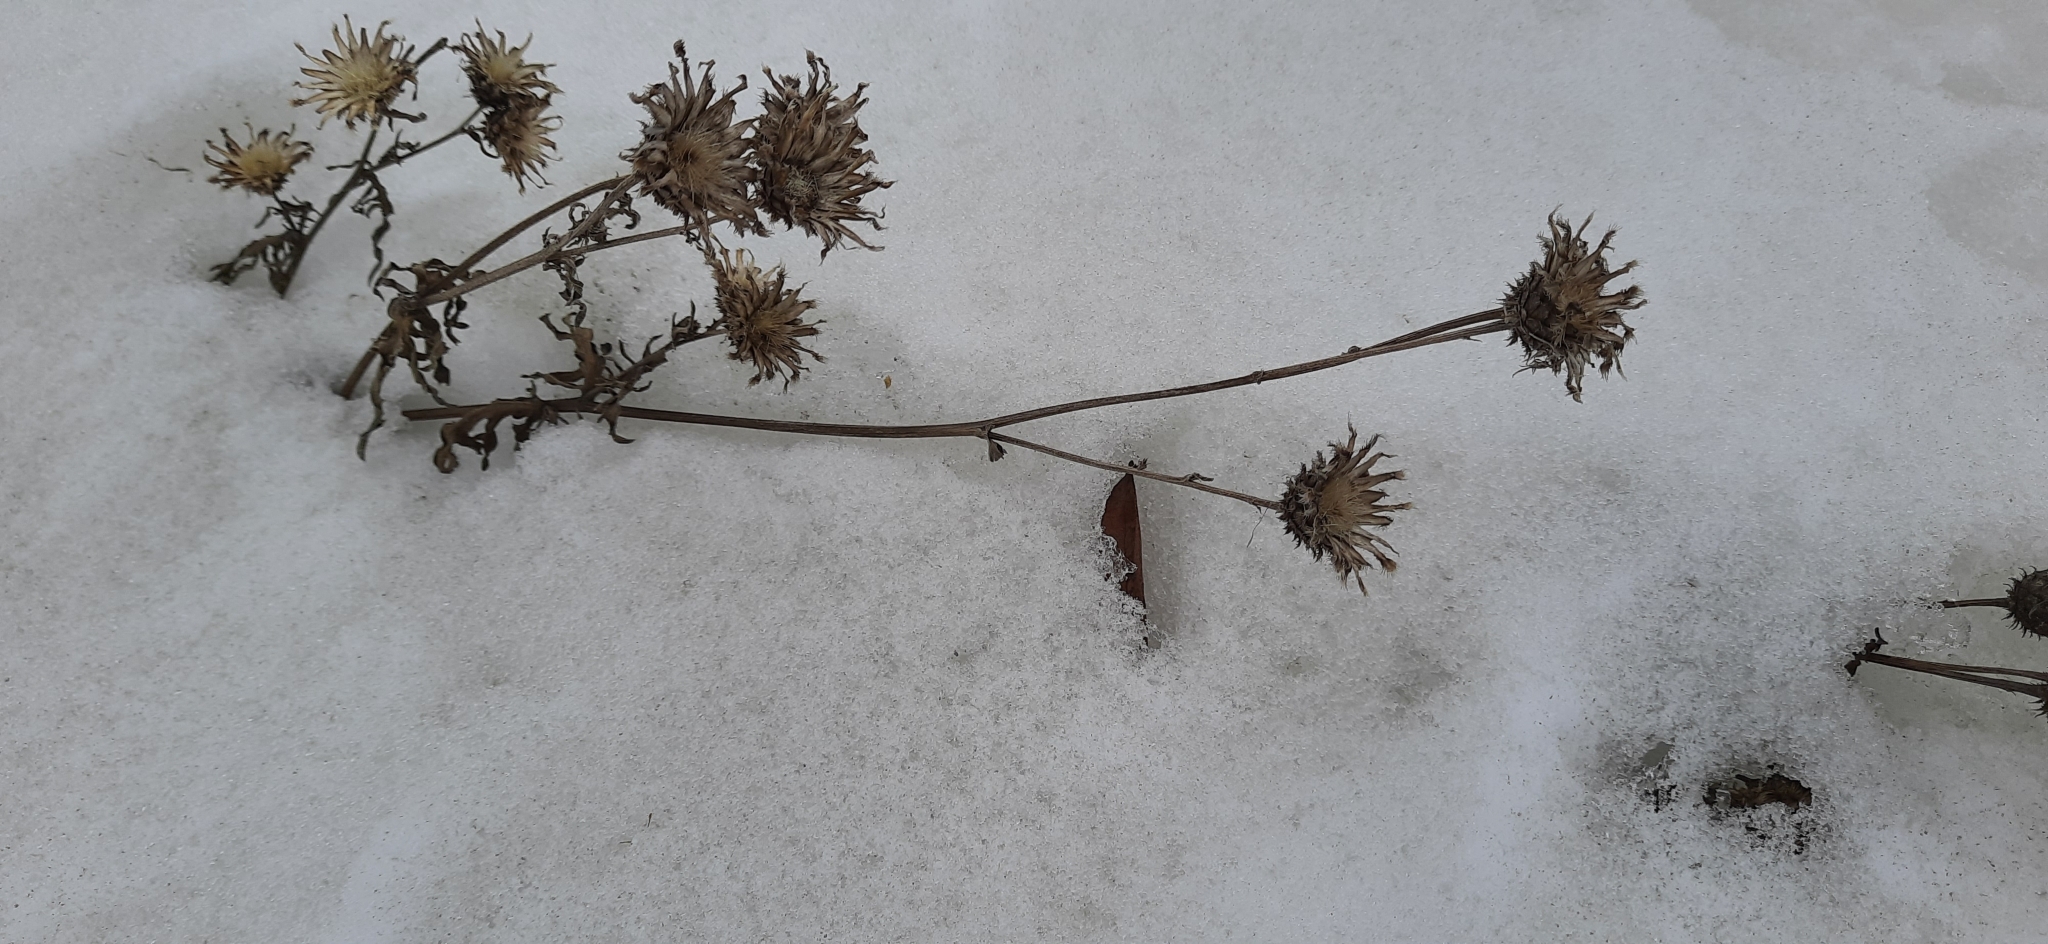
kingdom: Plantae
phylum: Tracheophyta
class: Magnoliopsida
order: Asterales
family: Asteraceae
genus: Centaurea
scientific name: Centaurea scabiosa
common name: Greater knapweed
